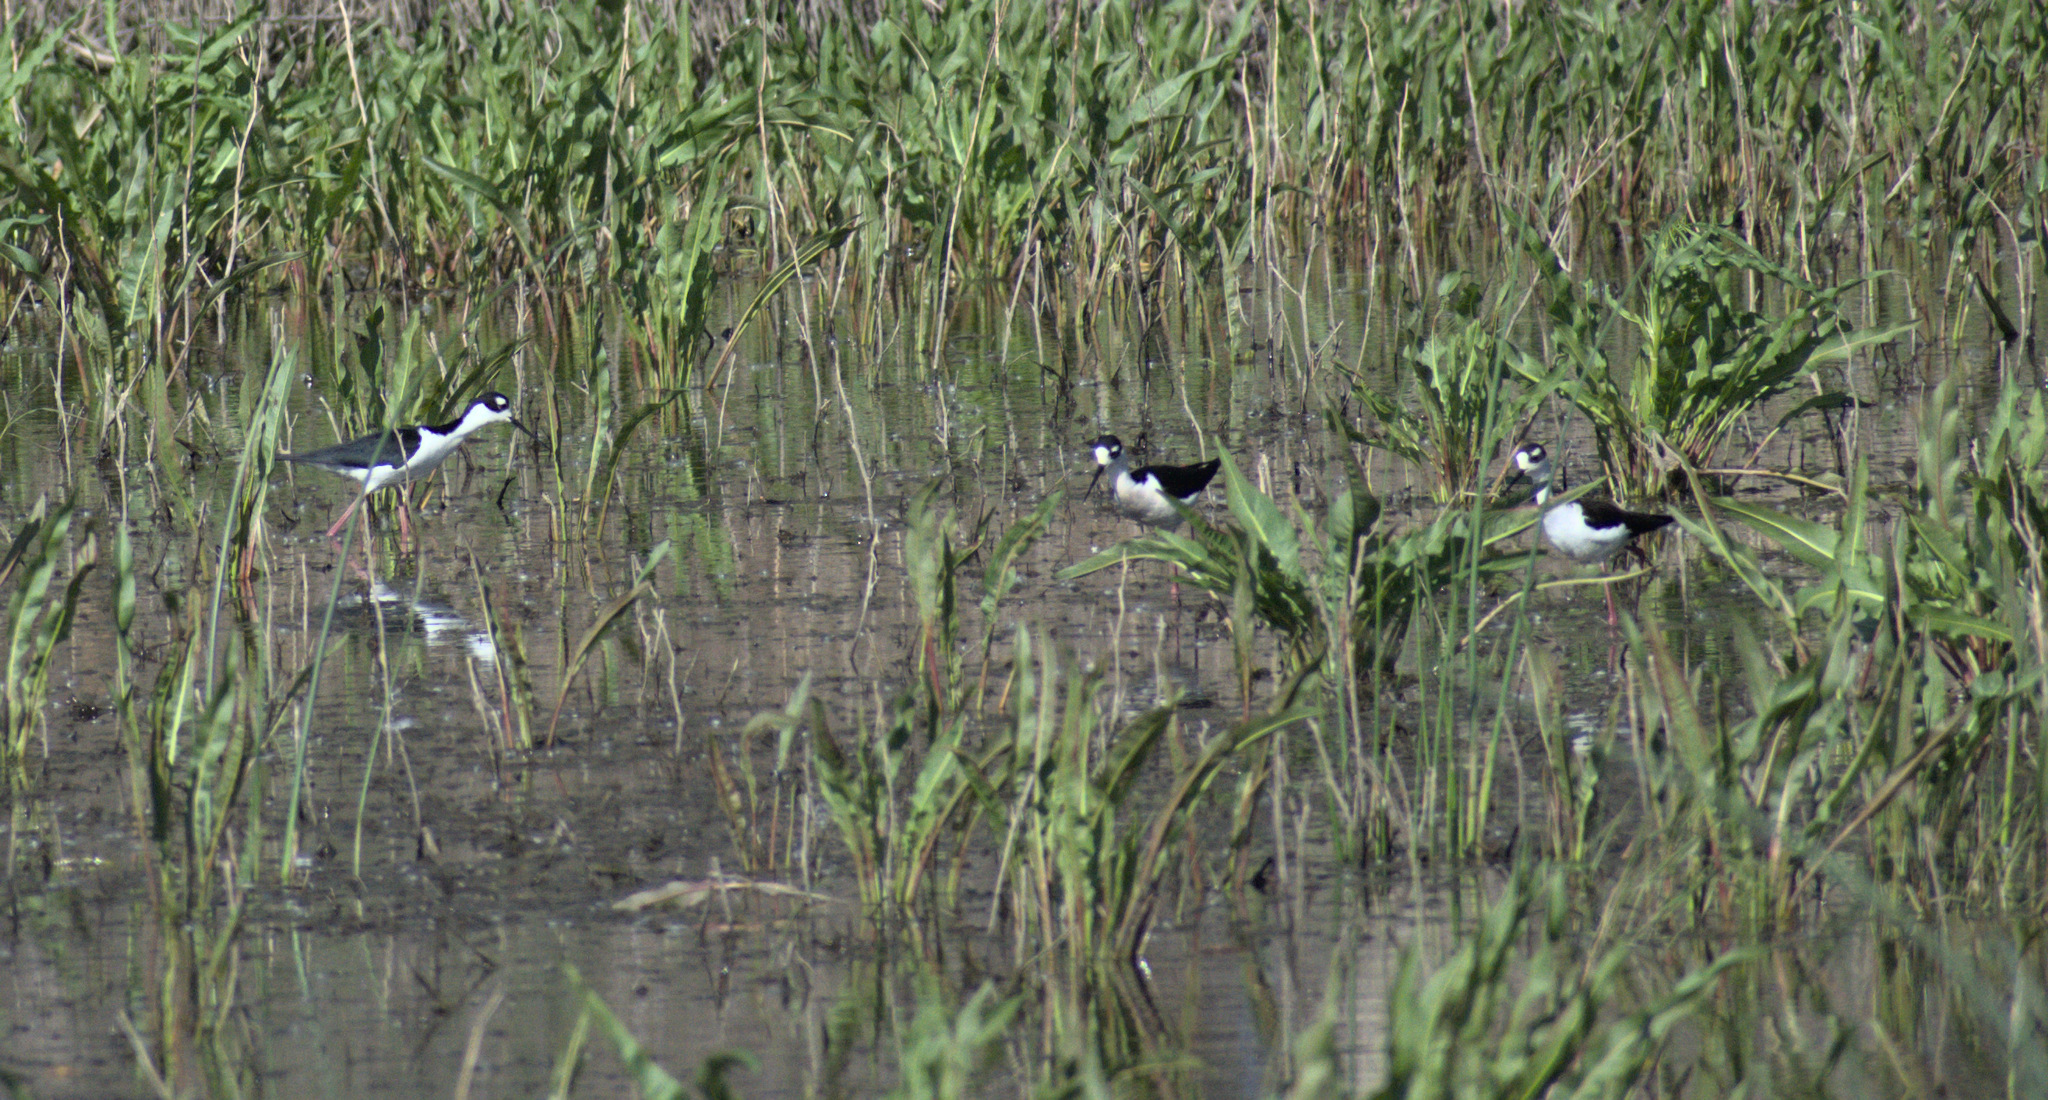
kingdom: Animalia
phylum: Chordata
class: Aves
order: Charadriiformes
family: Recurvirostridae
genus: Himantopus
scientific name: Himantopus mexicanus
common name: Black-necked stilt
